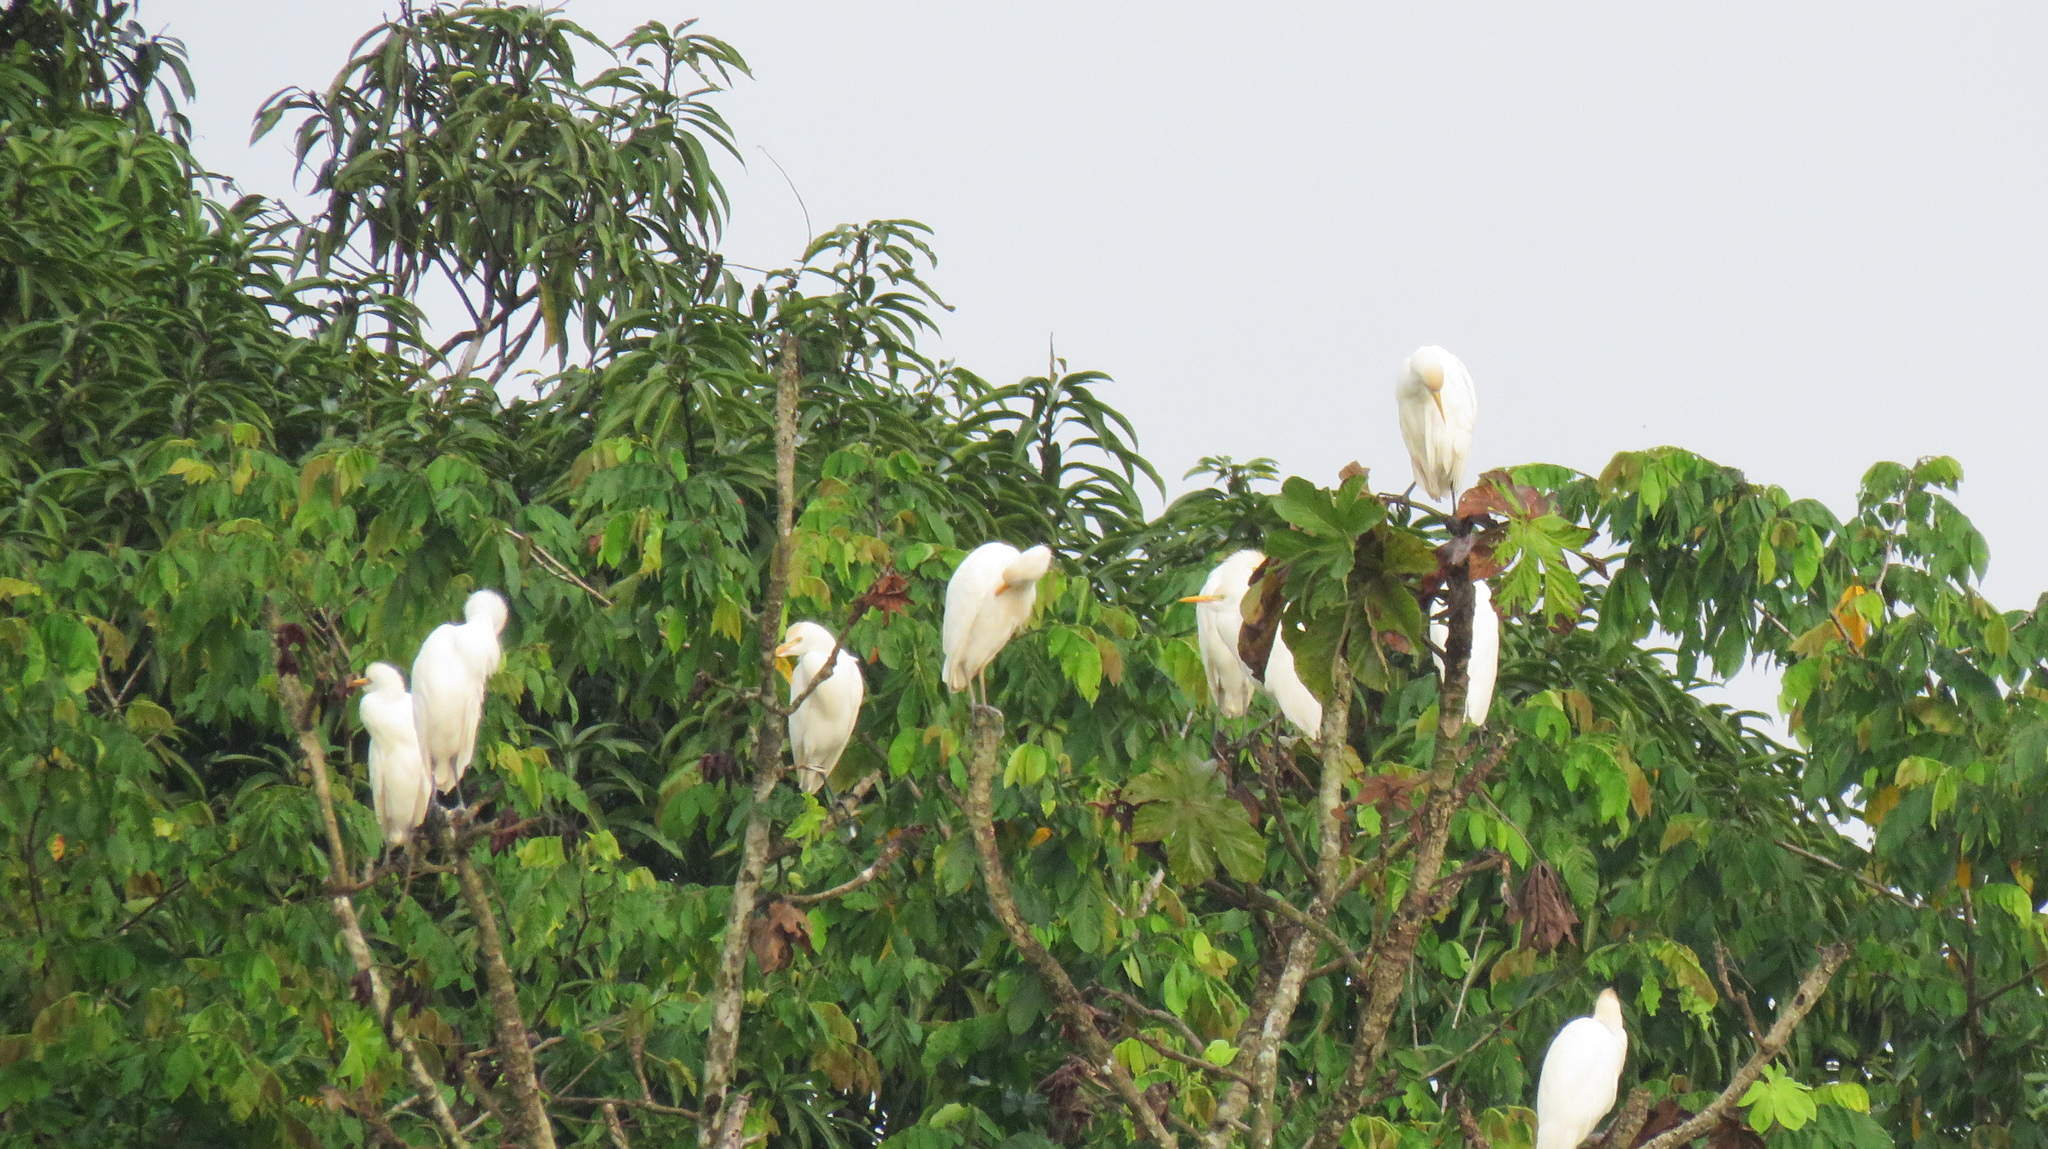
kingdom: Animalia
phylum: Chordata
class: Aves
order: Pelecaniformes
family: Ardeidae
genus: Bubulcus
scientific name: Bubulcus ibis
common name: Cattle egret
